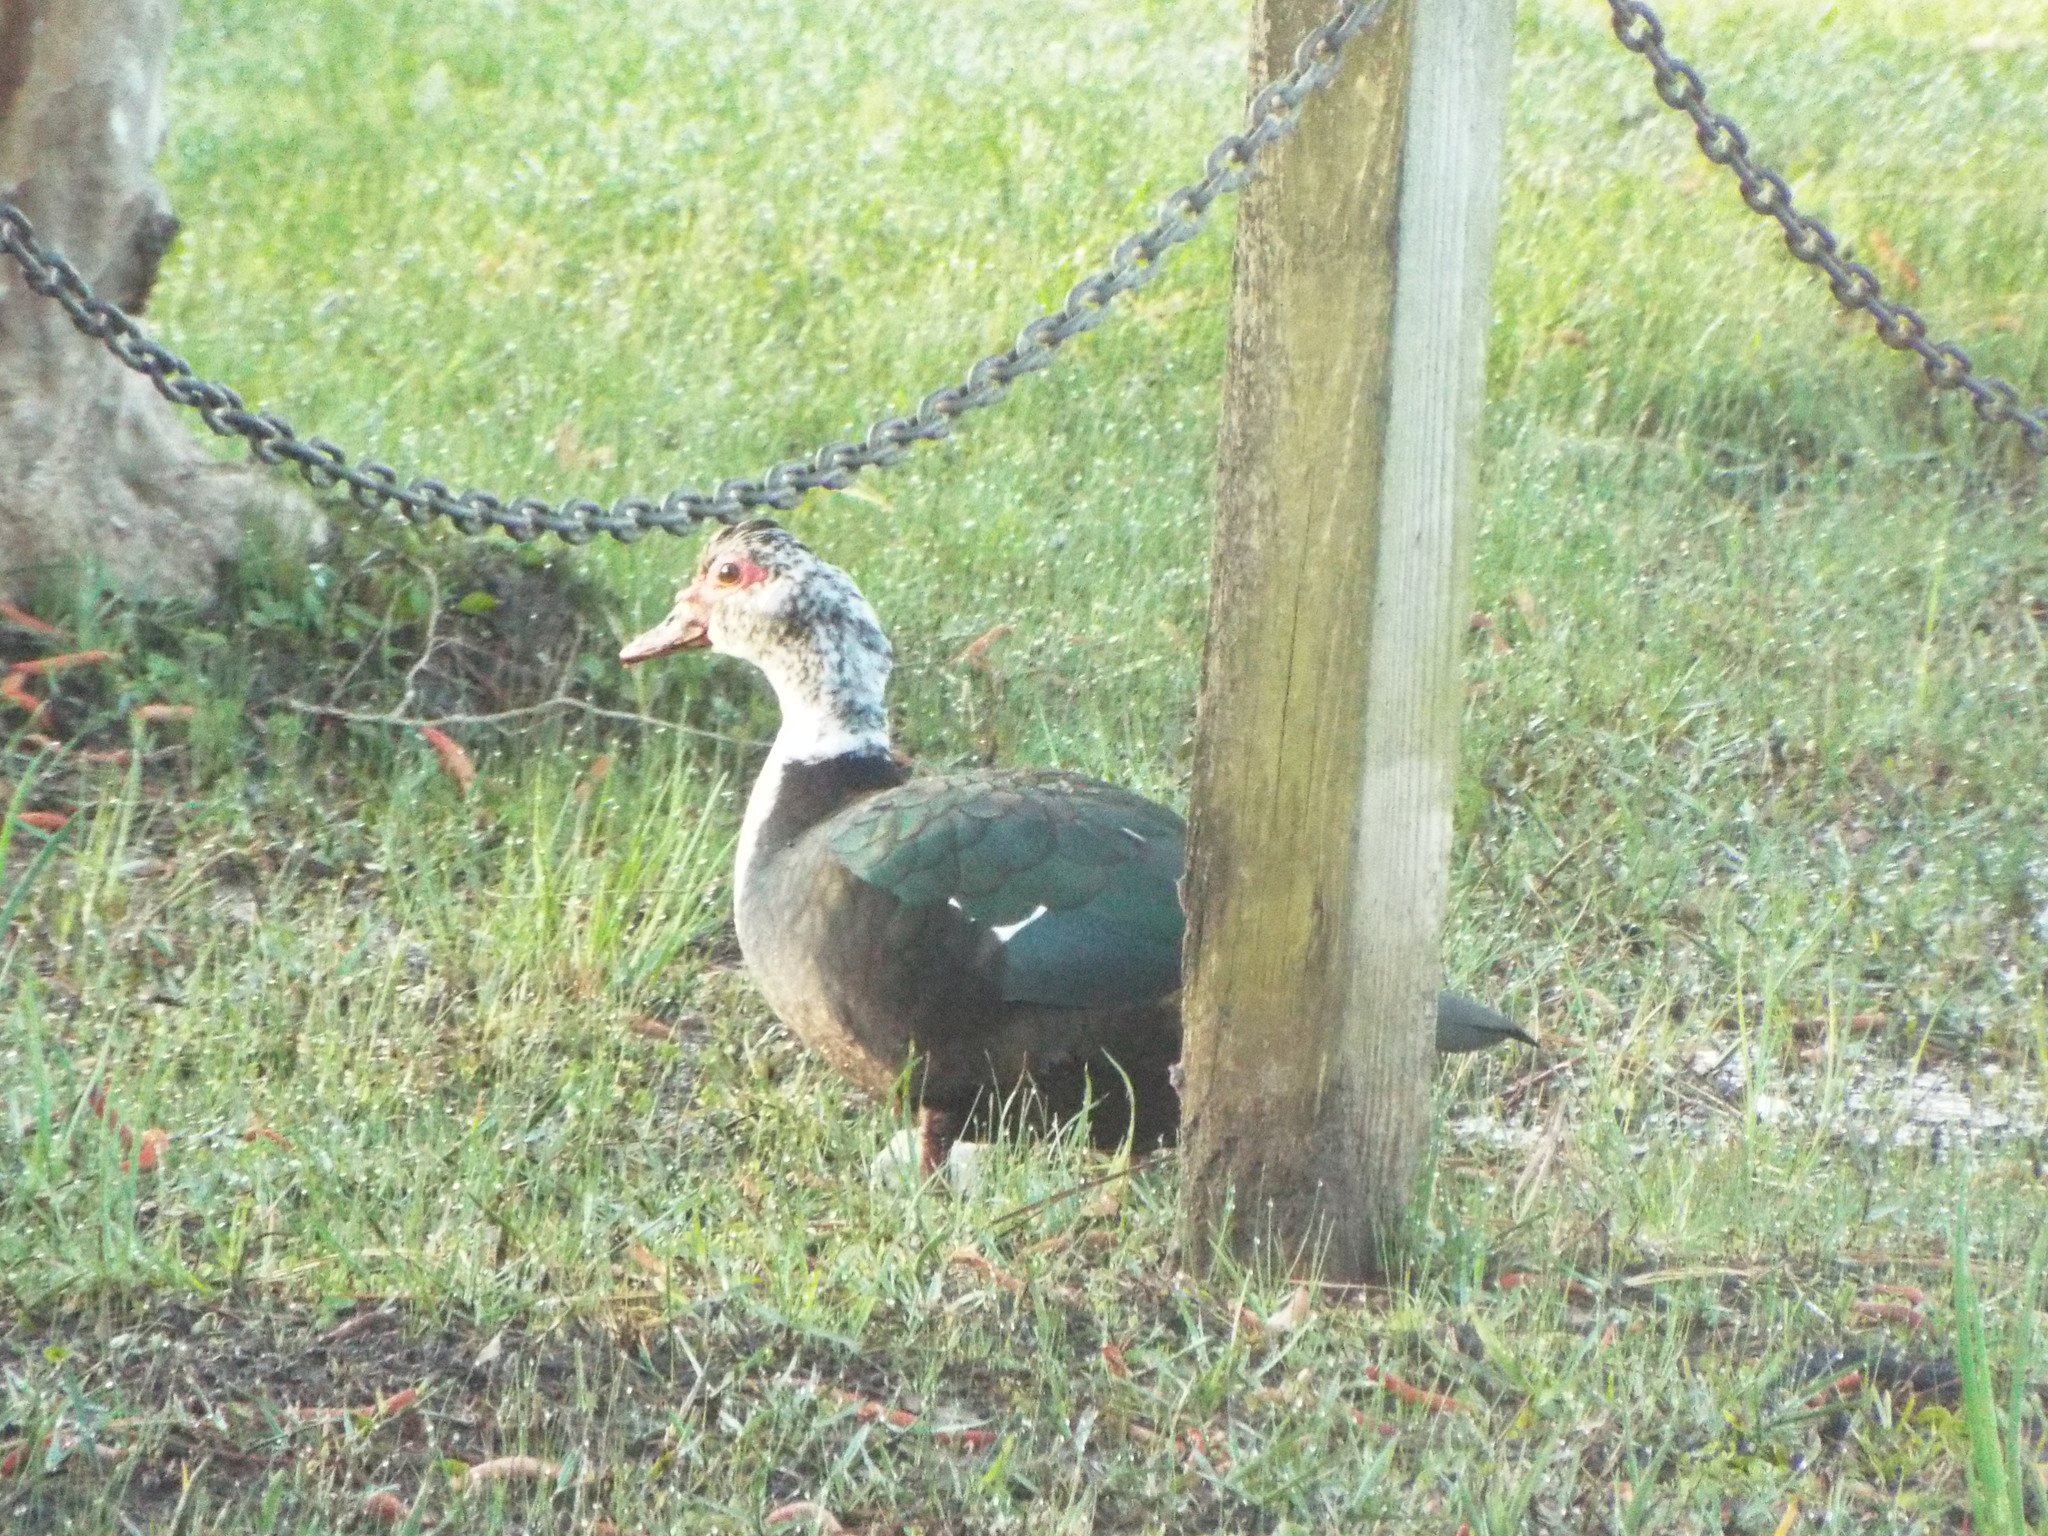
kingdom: Animalia
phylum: Chordata
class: Aves
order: Anseriformes
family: Anatidae
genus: Cairina
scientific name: Cairina moschata
